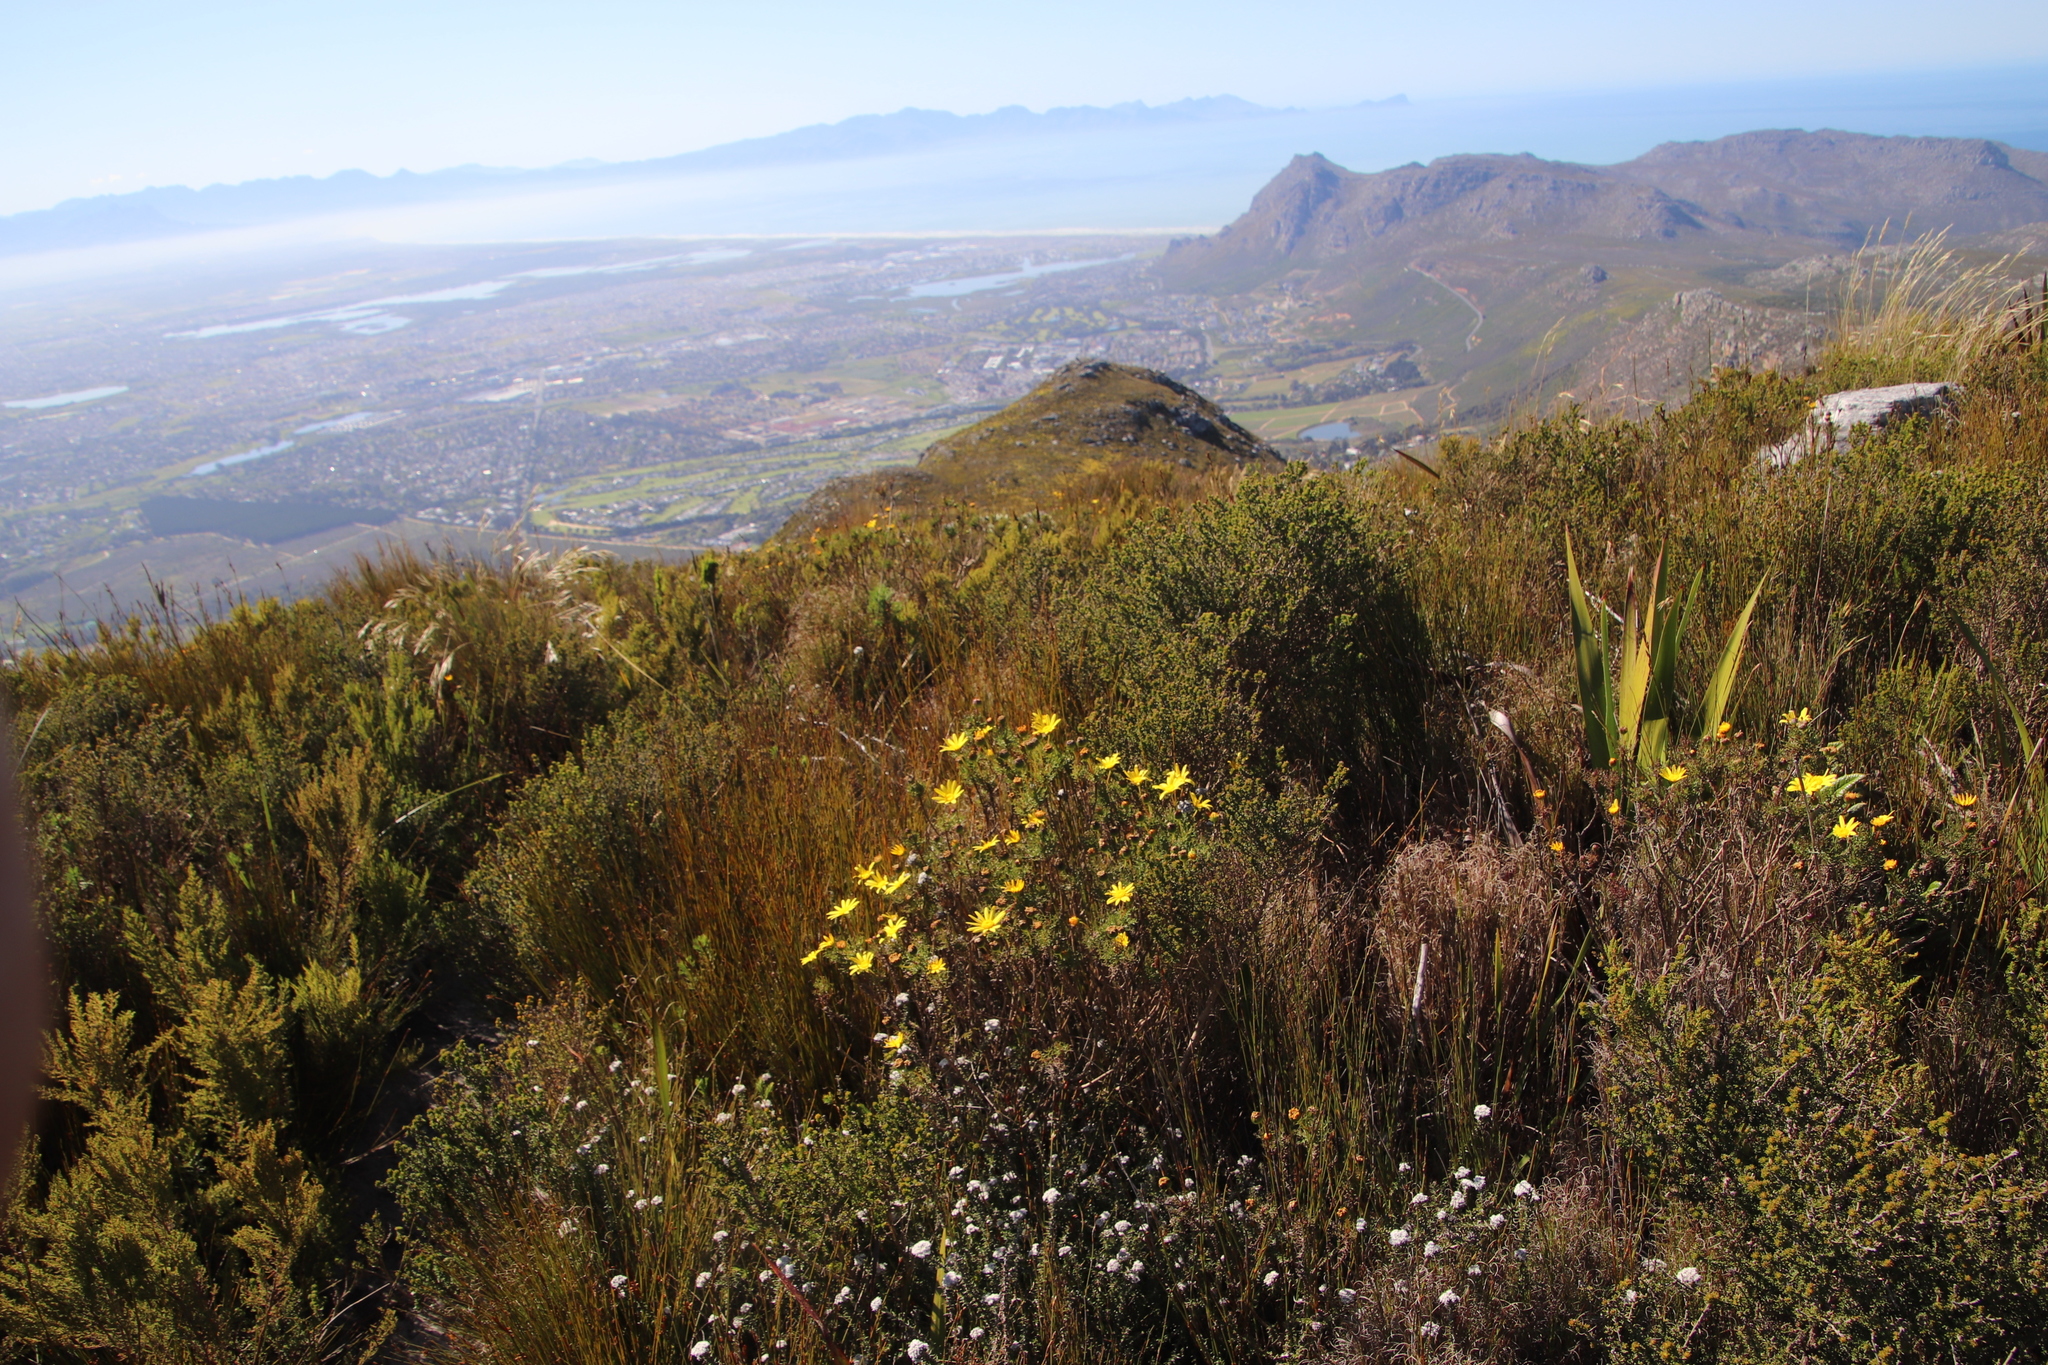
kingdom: Plantae
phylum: Tracheophyta
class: Magnoliopsida
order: Asterales
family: Asteraceae
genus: Euryops
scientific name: Euryops abrotanifolius
